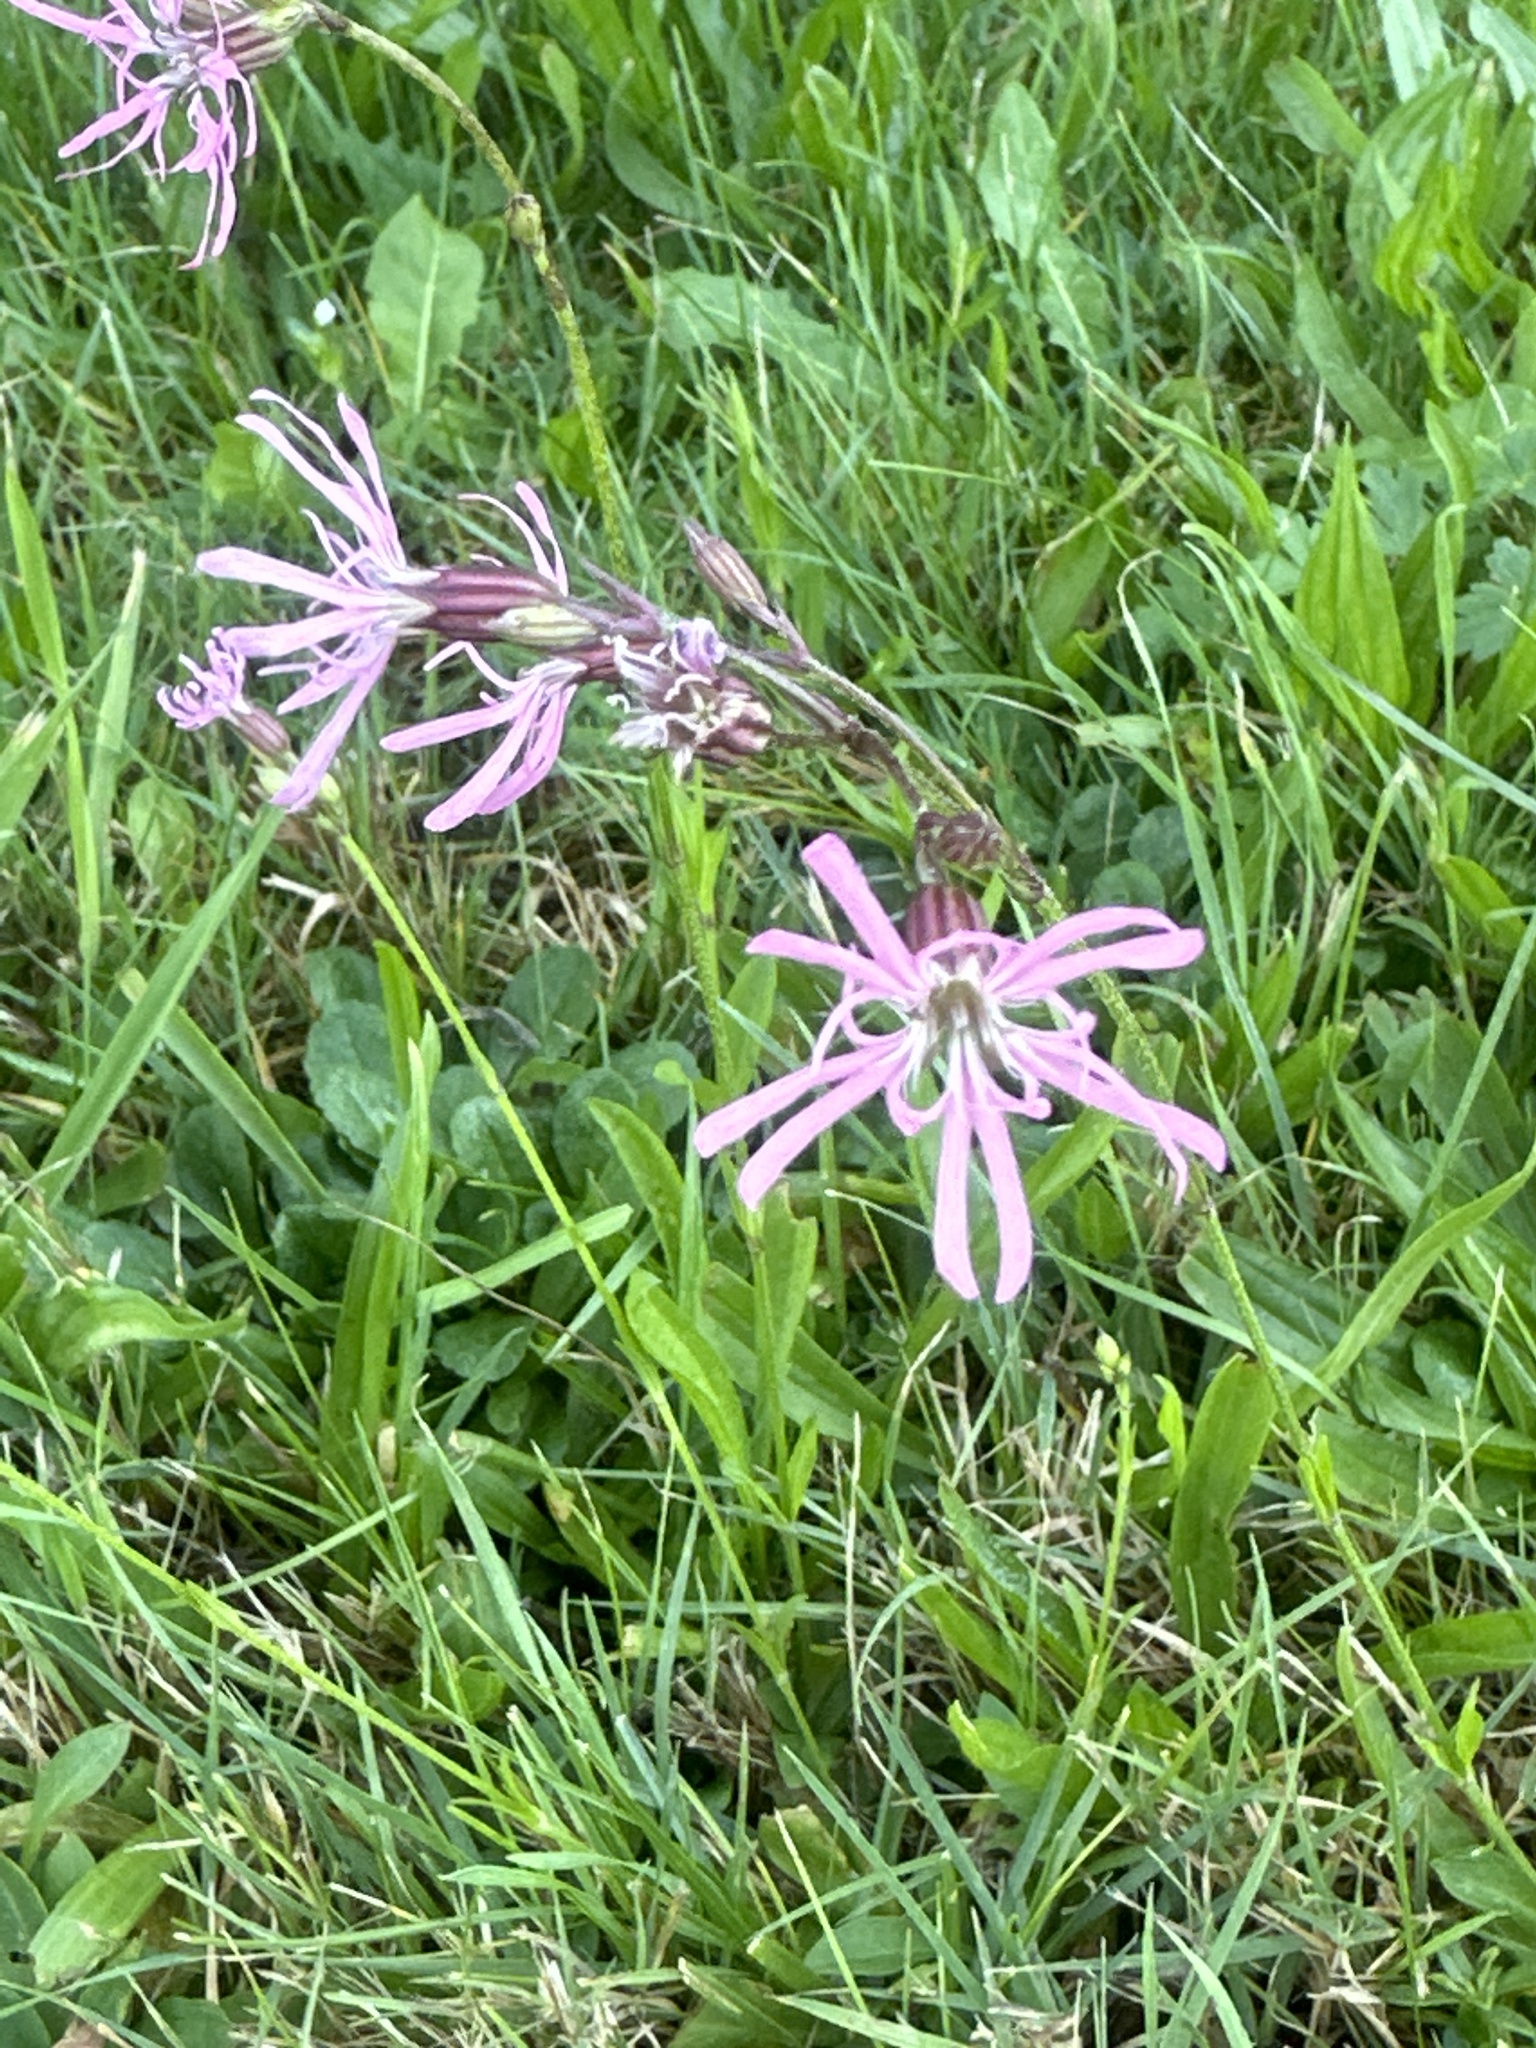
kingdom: Plantae
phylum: Tracheophyta
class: Magnoliopsida
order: Caryophyllales
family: Caryophyllaceae
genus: Silene
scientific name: Silene flos-cuculi
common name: Ragged-robin
